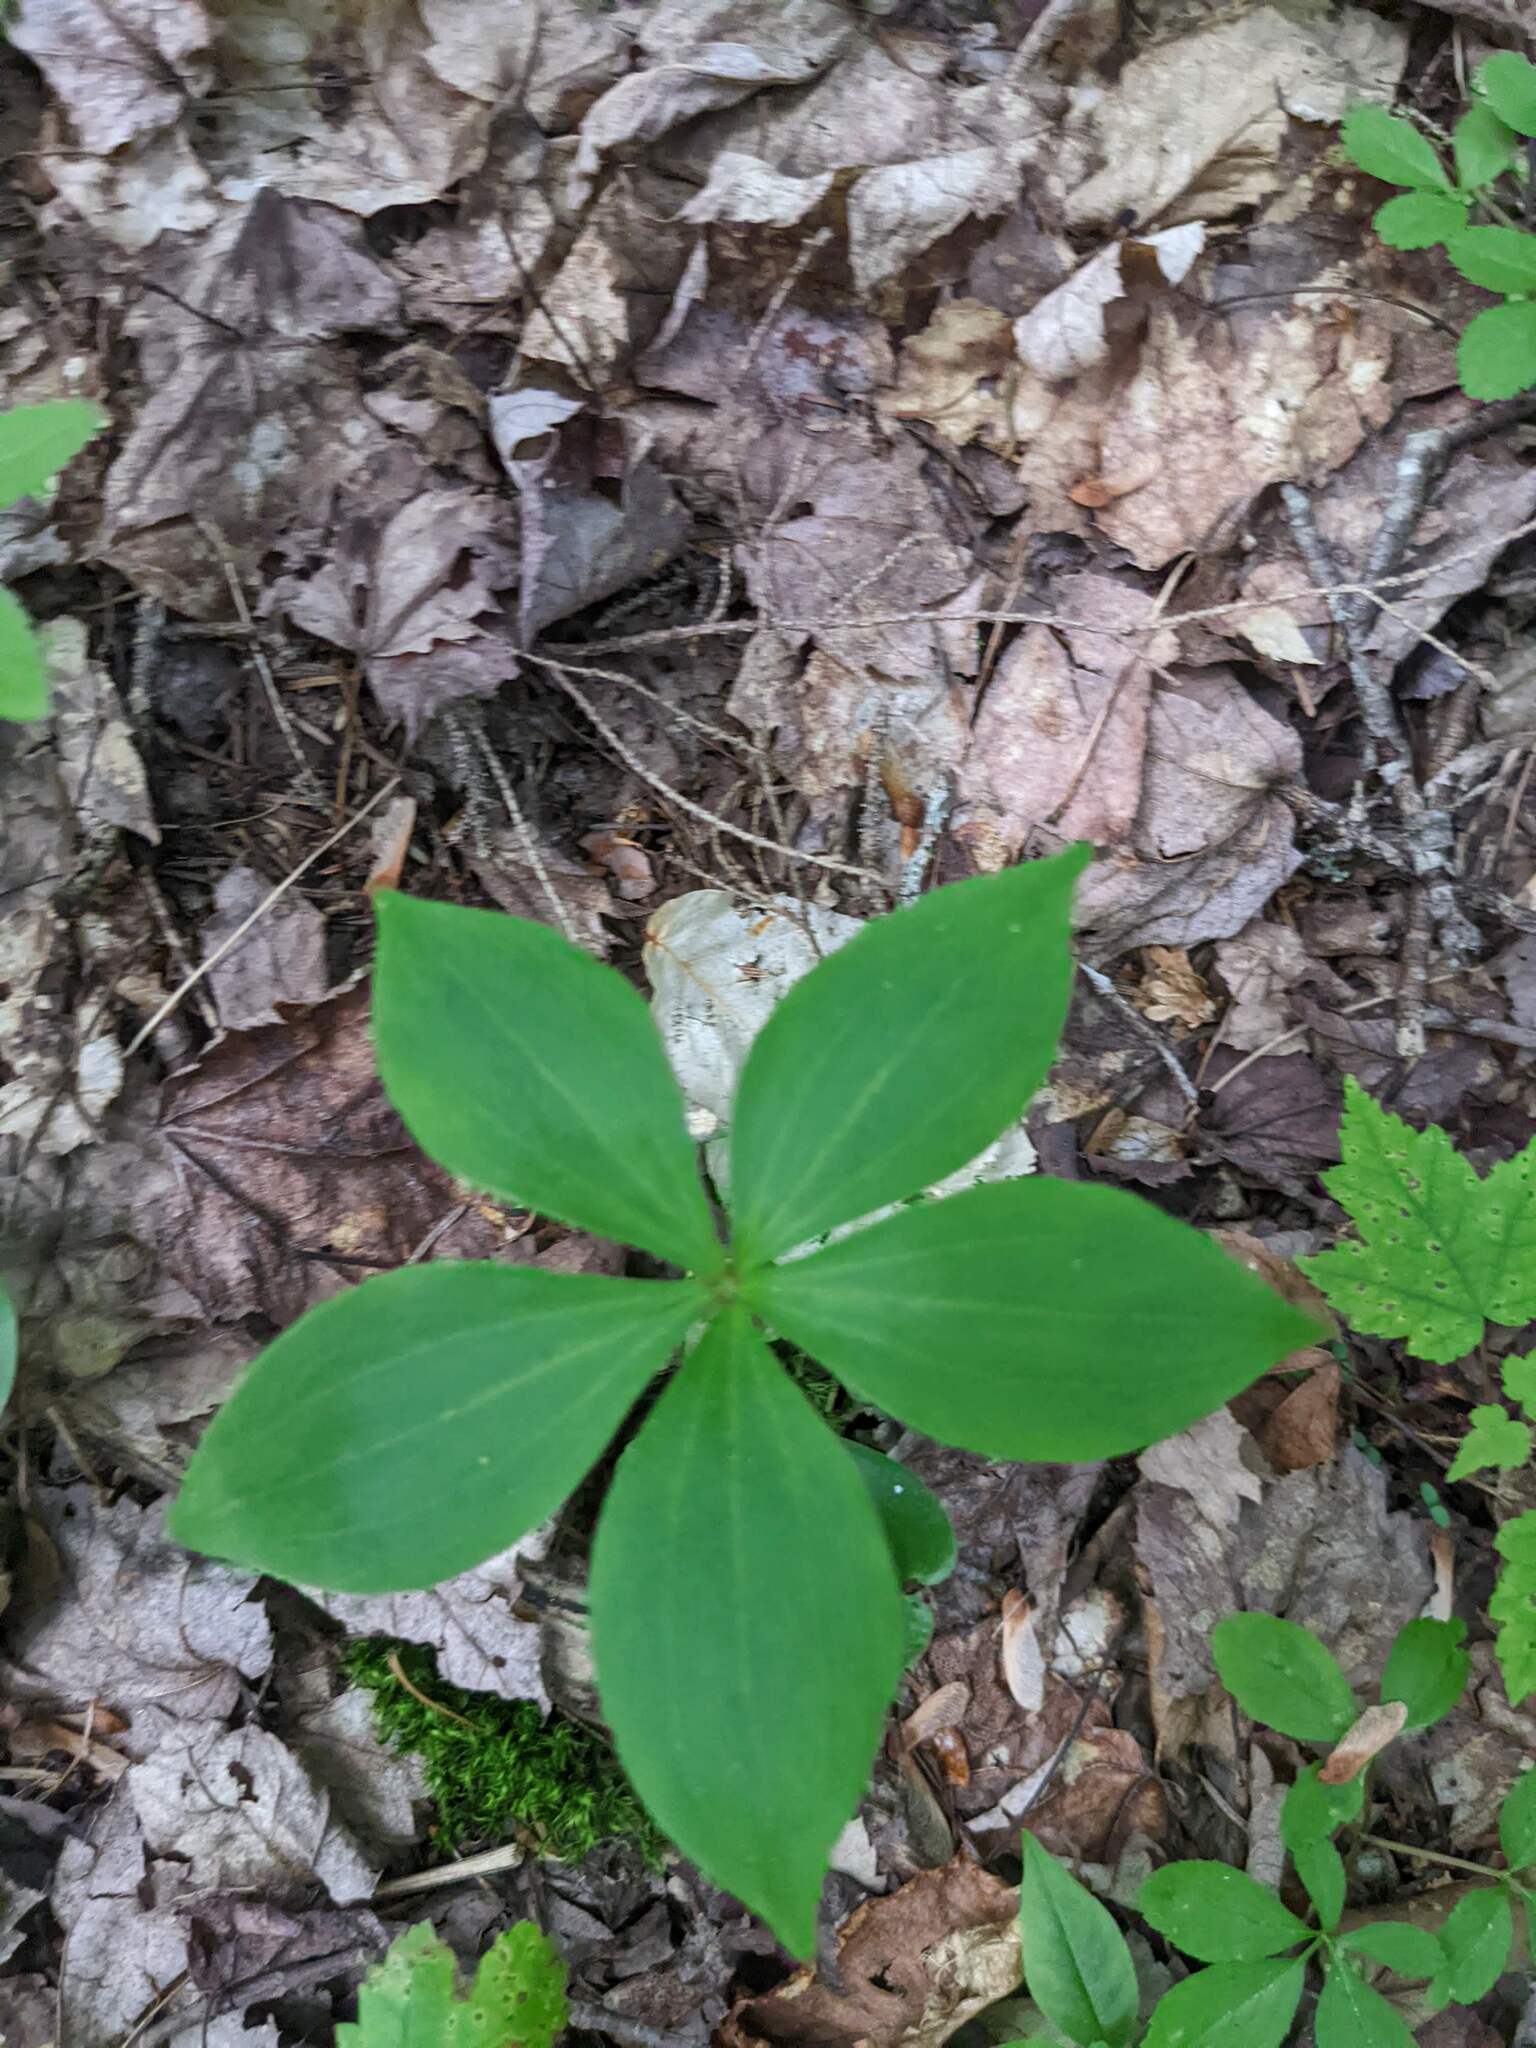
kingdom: Plantae
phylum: Tracheophyta
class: Liliopsida
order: Liliales
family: Liliaceae
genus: Medeola
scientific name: Medeola virginiana
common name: Indian cucumber-root
